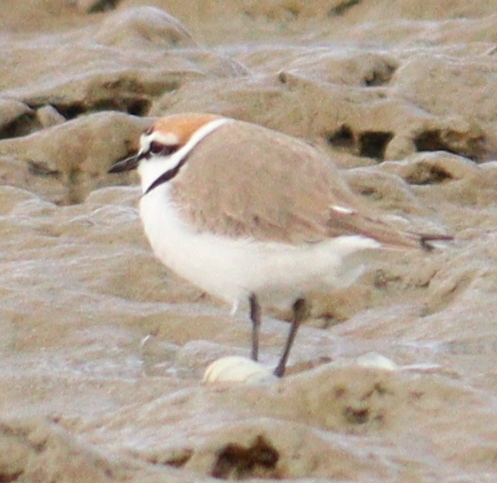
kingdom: Animalia
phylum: Chordata
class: Aves
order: Charadriiformes
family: Charadriidae
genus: Charadrius
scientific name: Charadrius alexandrinus
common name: Kentish plover
